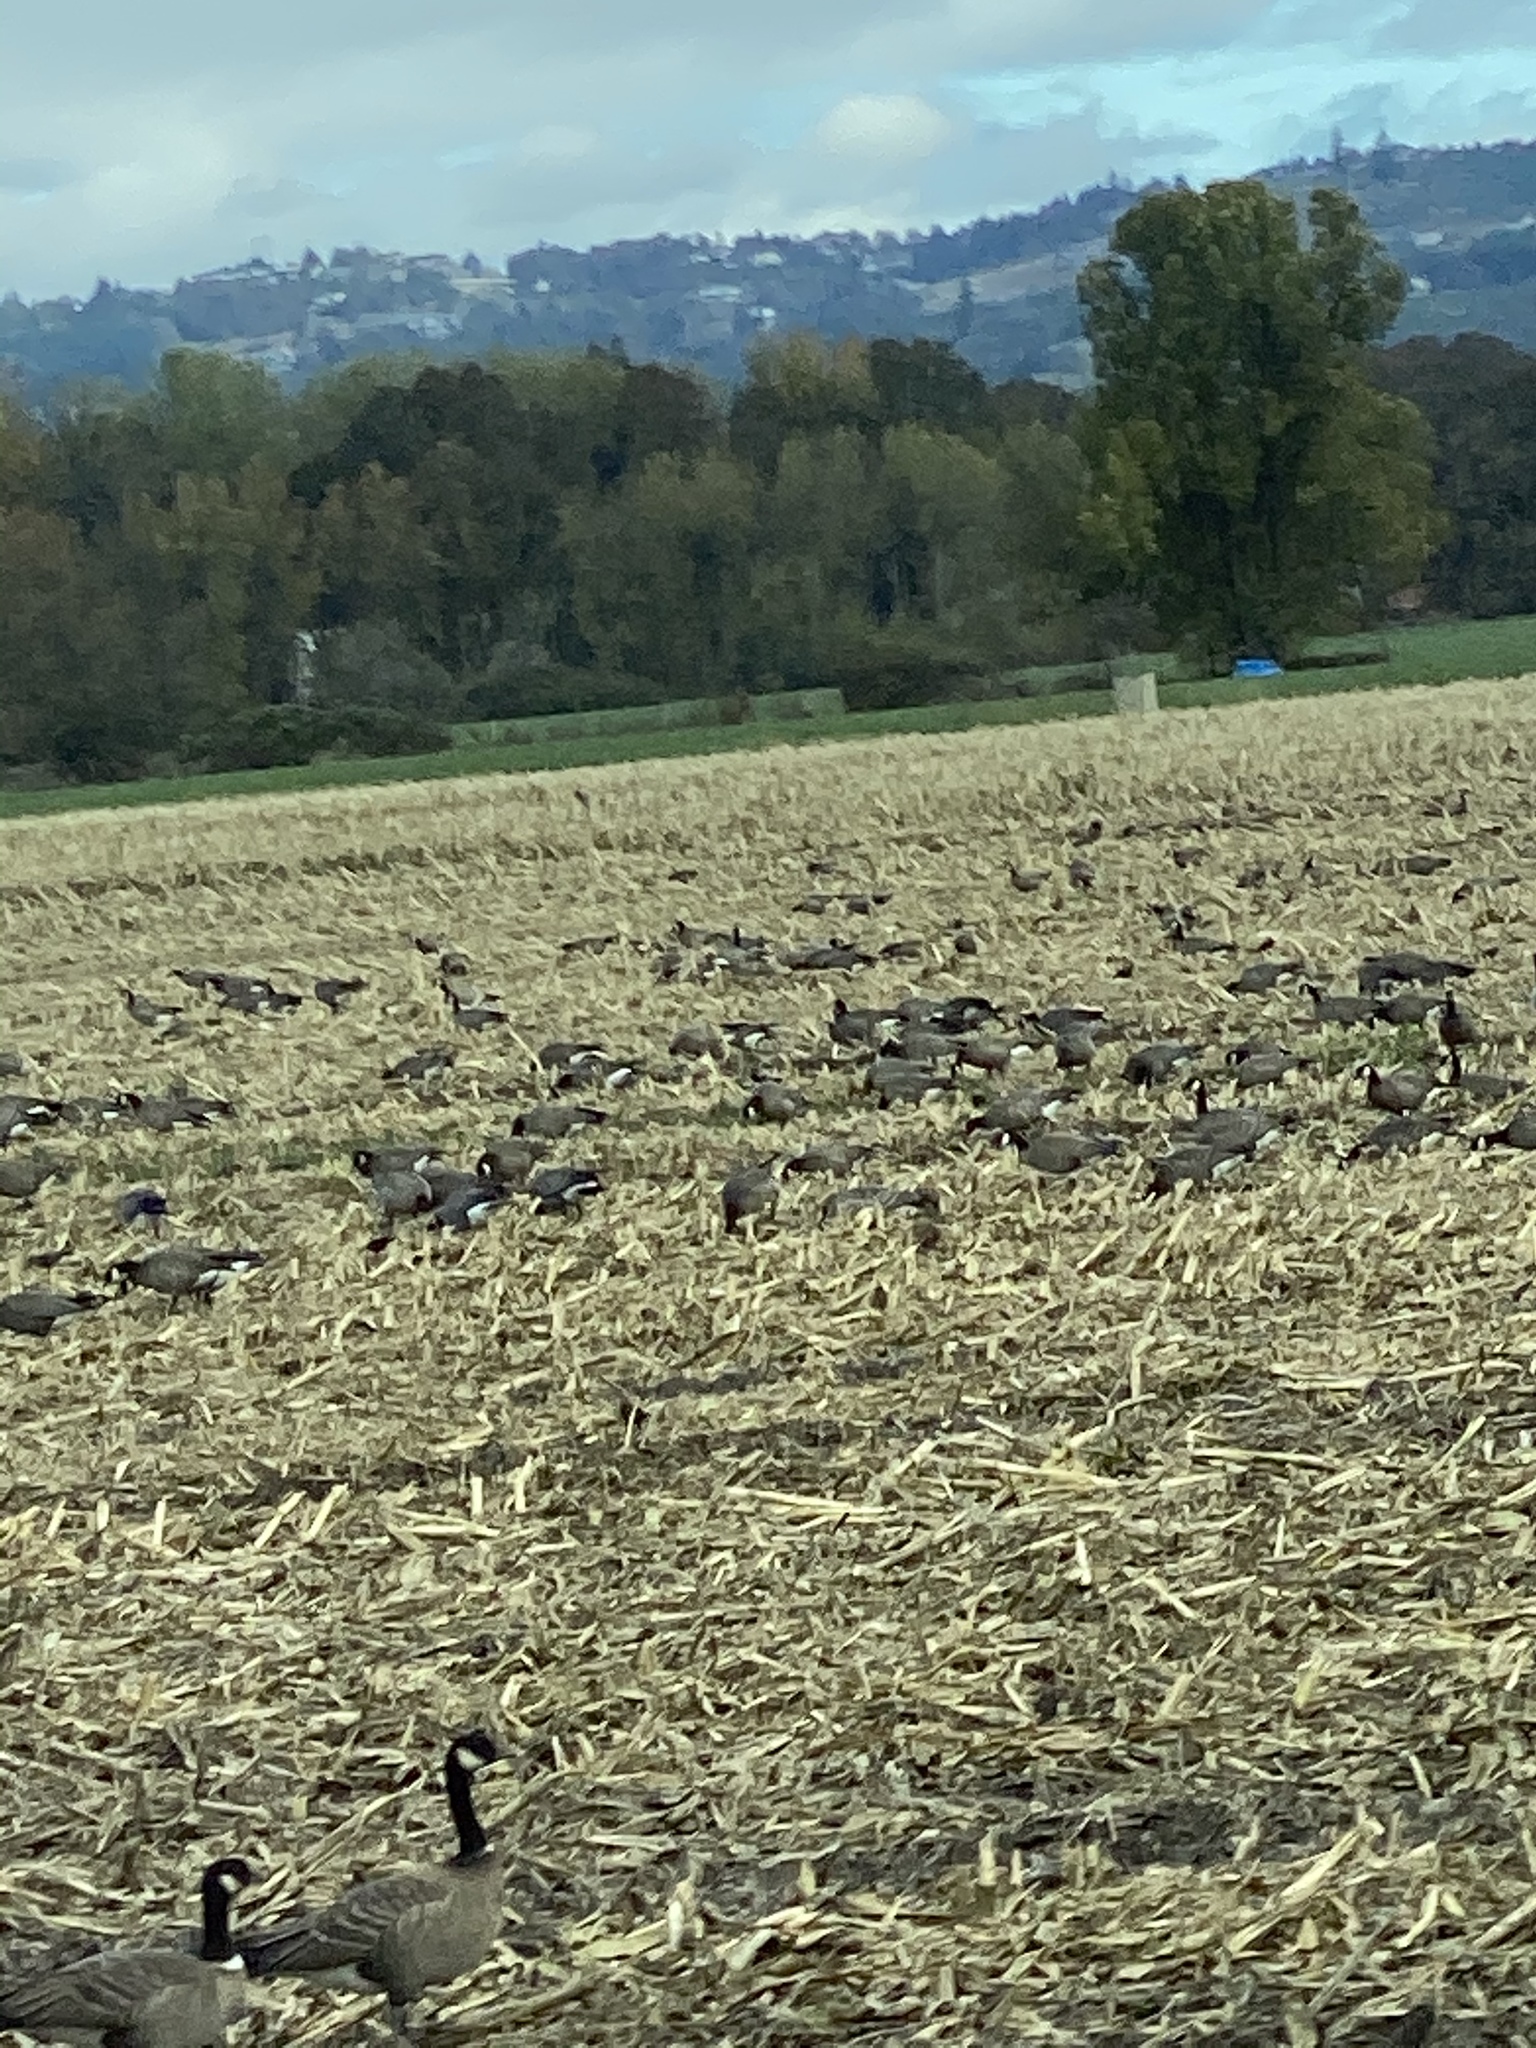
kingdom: Animalia
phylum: Chordata
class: Aves
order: Anseriformes
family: Anatidae
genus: Branta
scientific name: Branta hutchinsii
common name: Cackling goose
